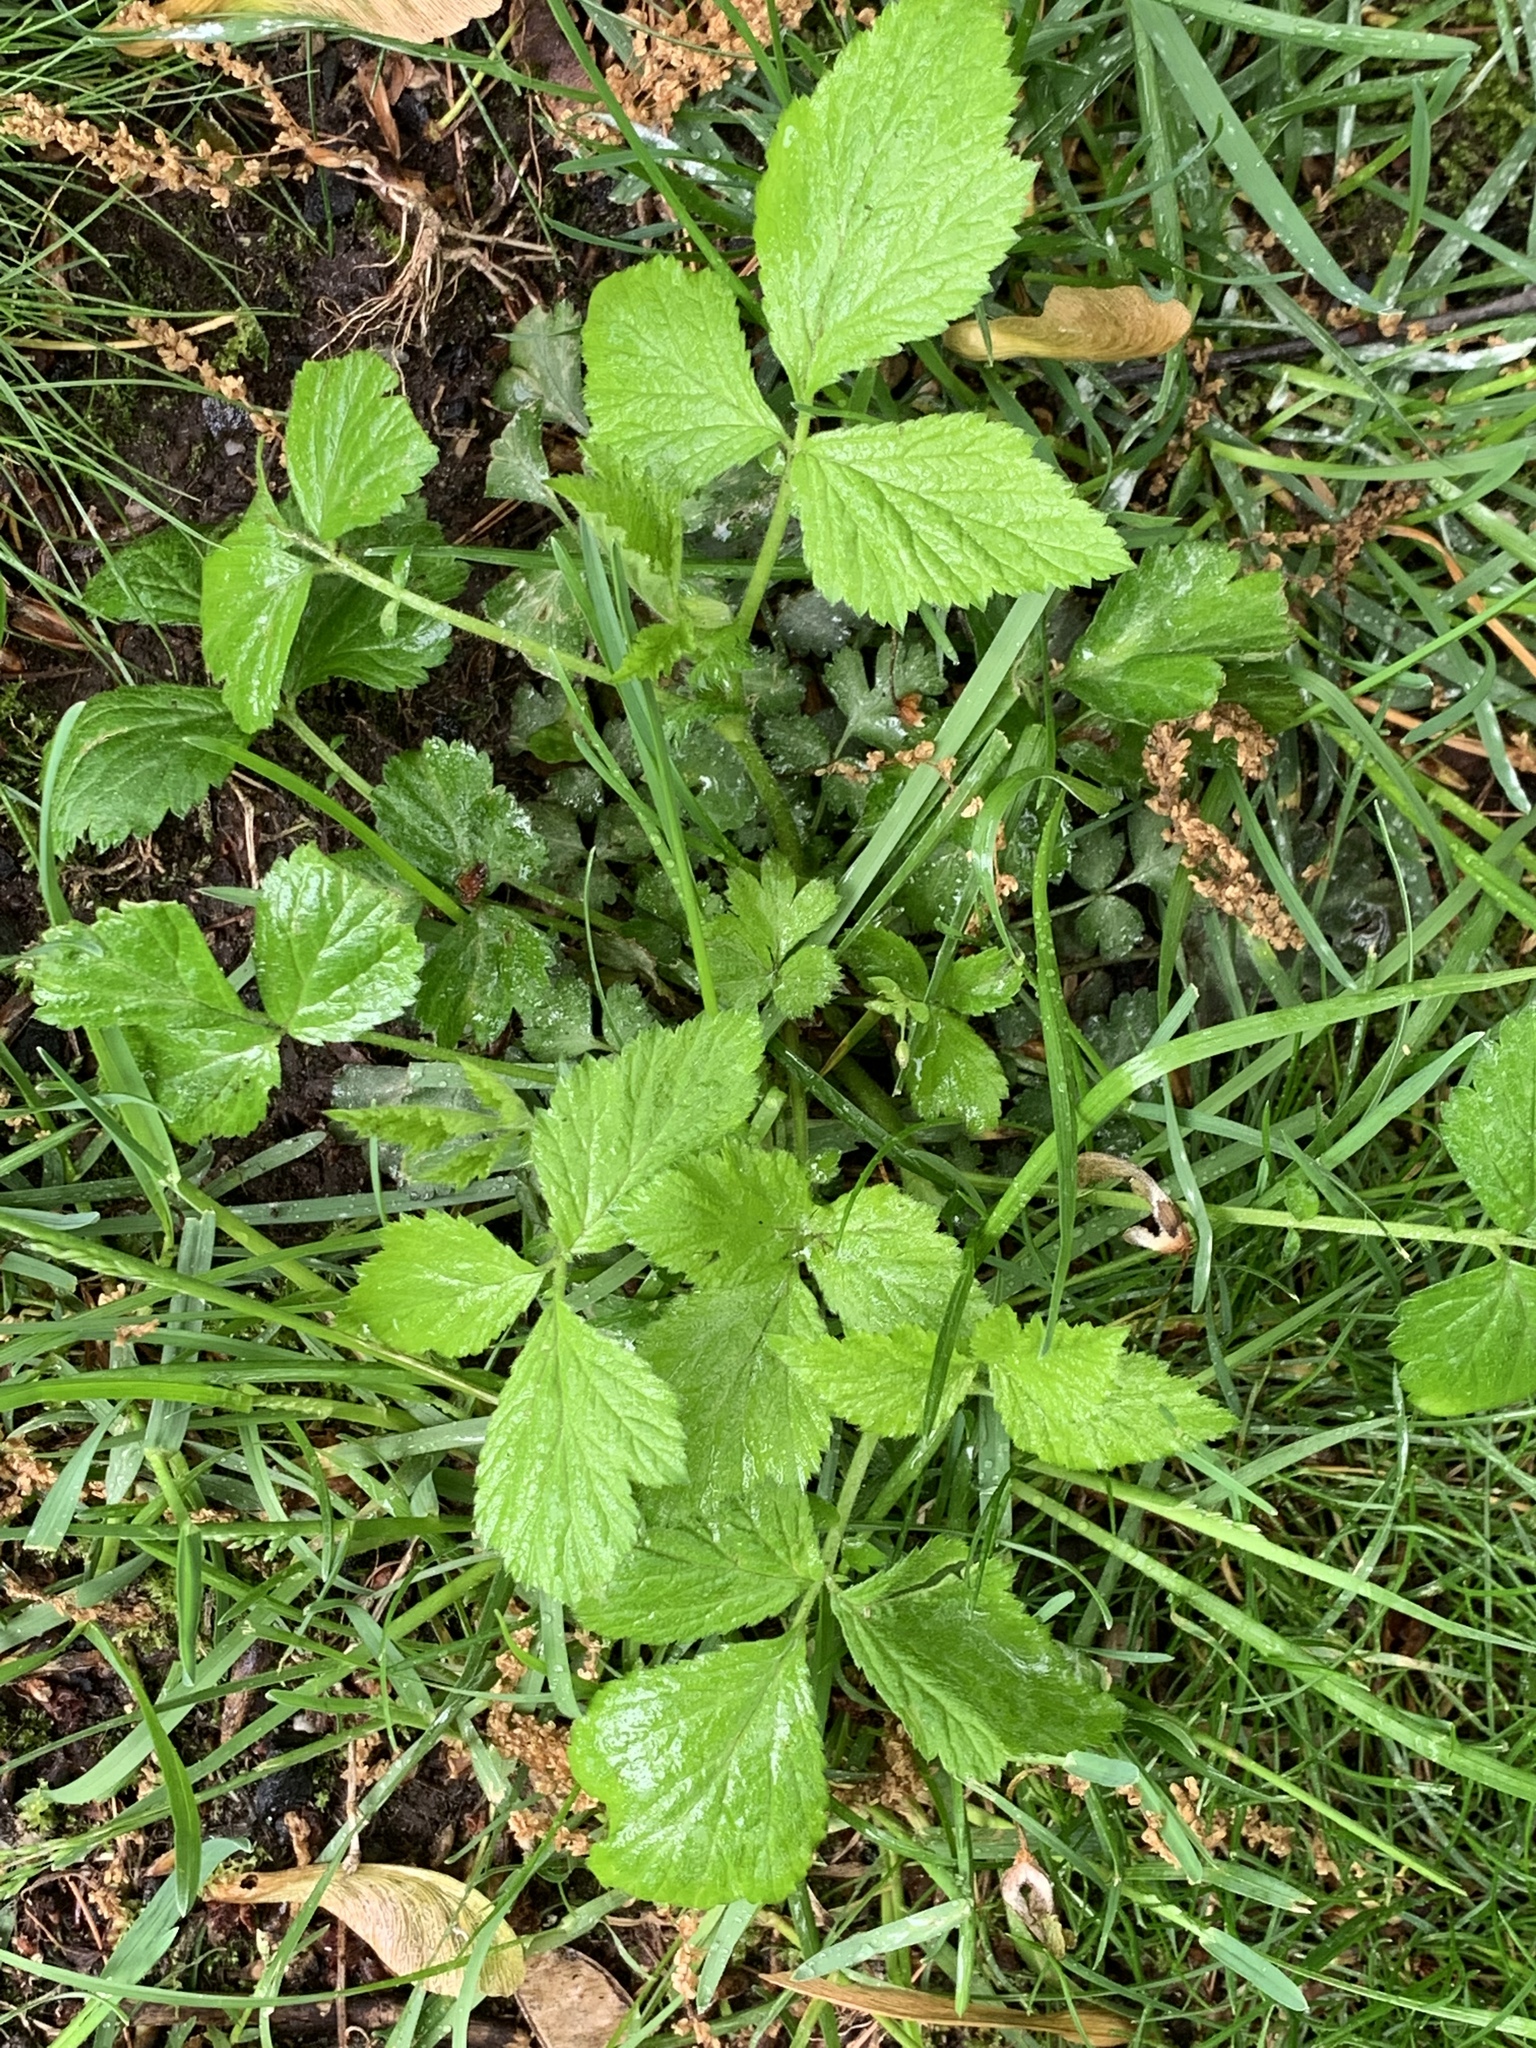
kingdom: Plantae
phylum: Tracheophyta
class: Magnoliopsida
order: Rosales
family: Rosaceae
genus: Geum
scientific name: Geum canadense
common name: White avens
